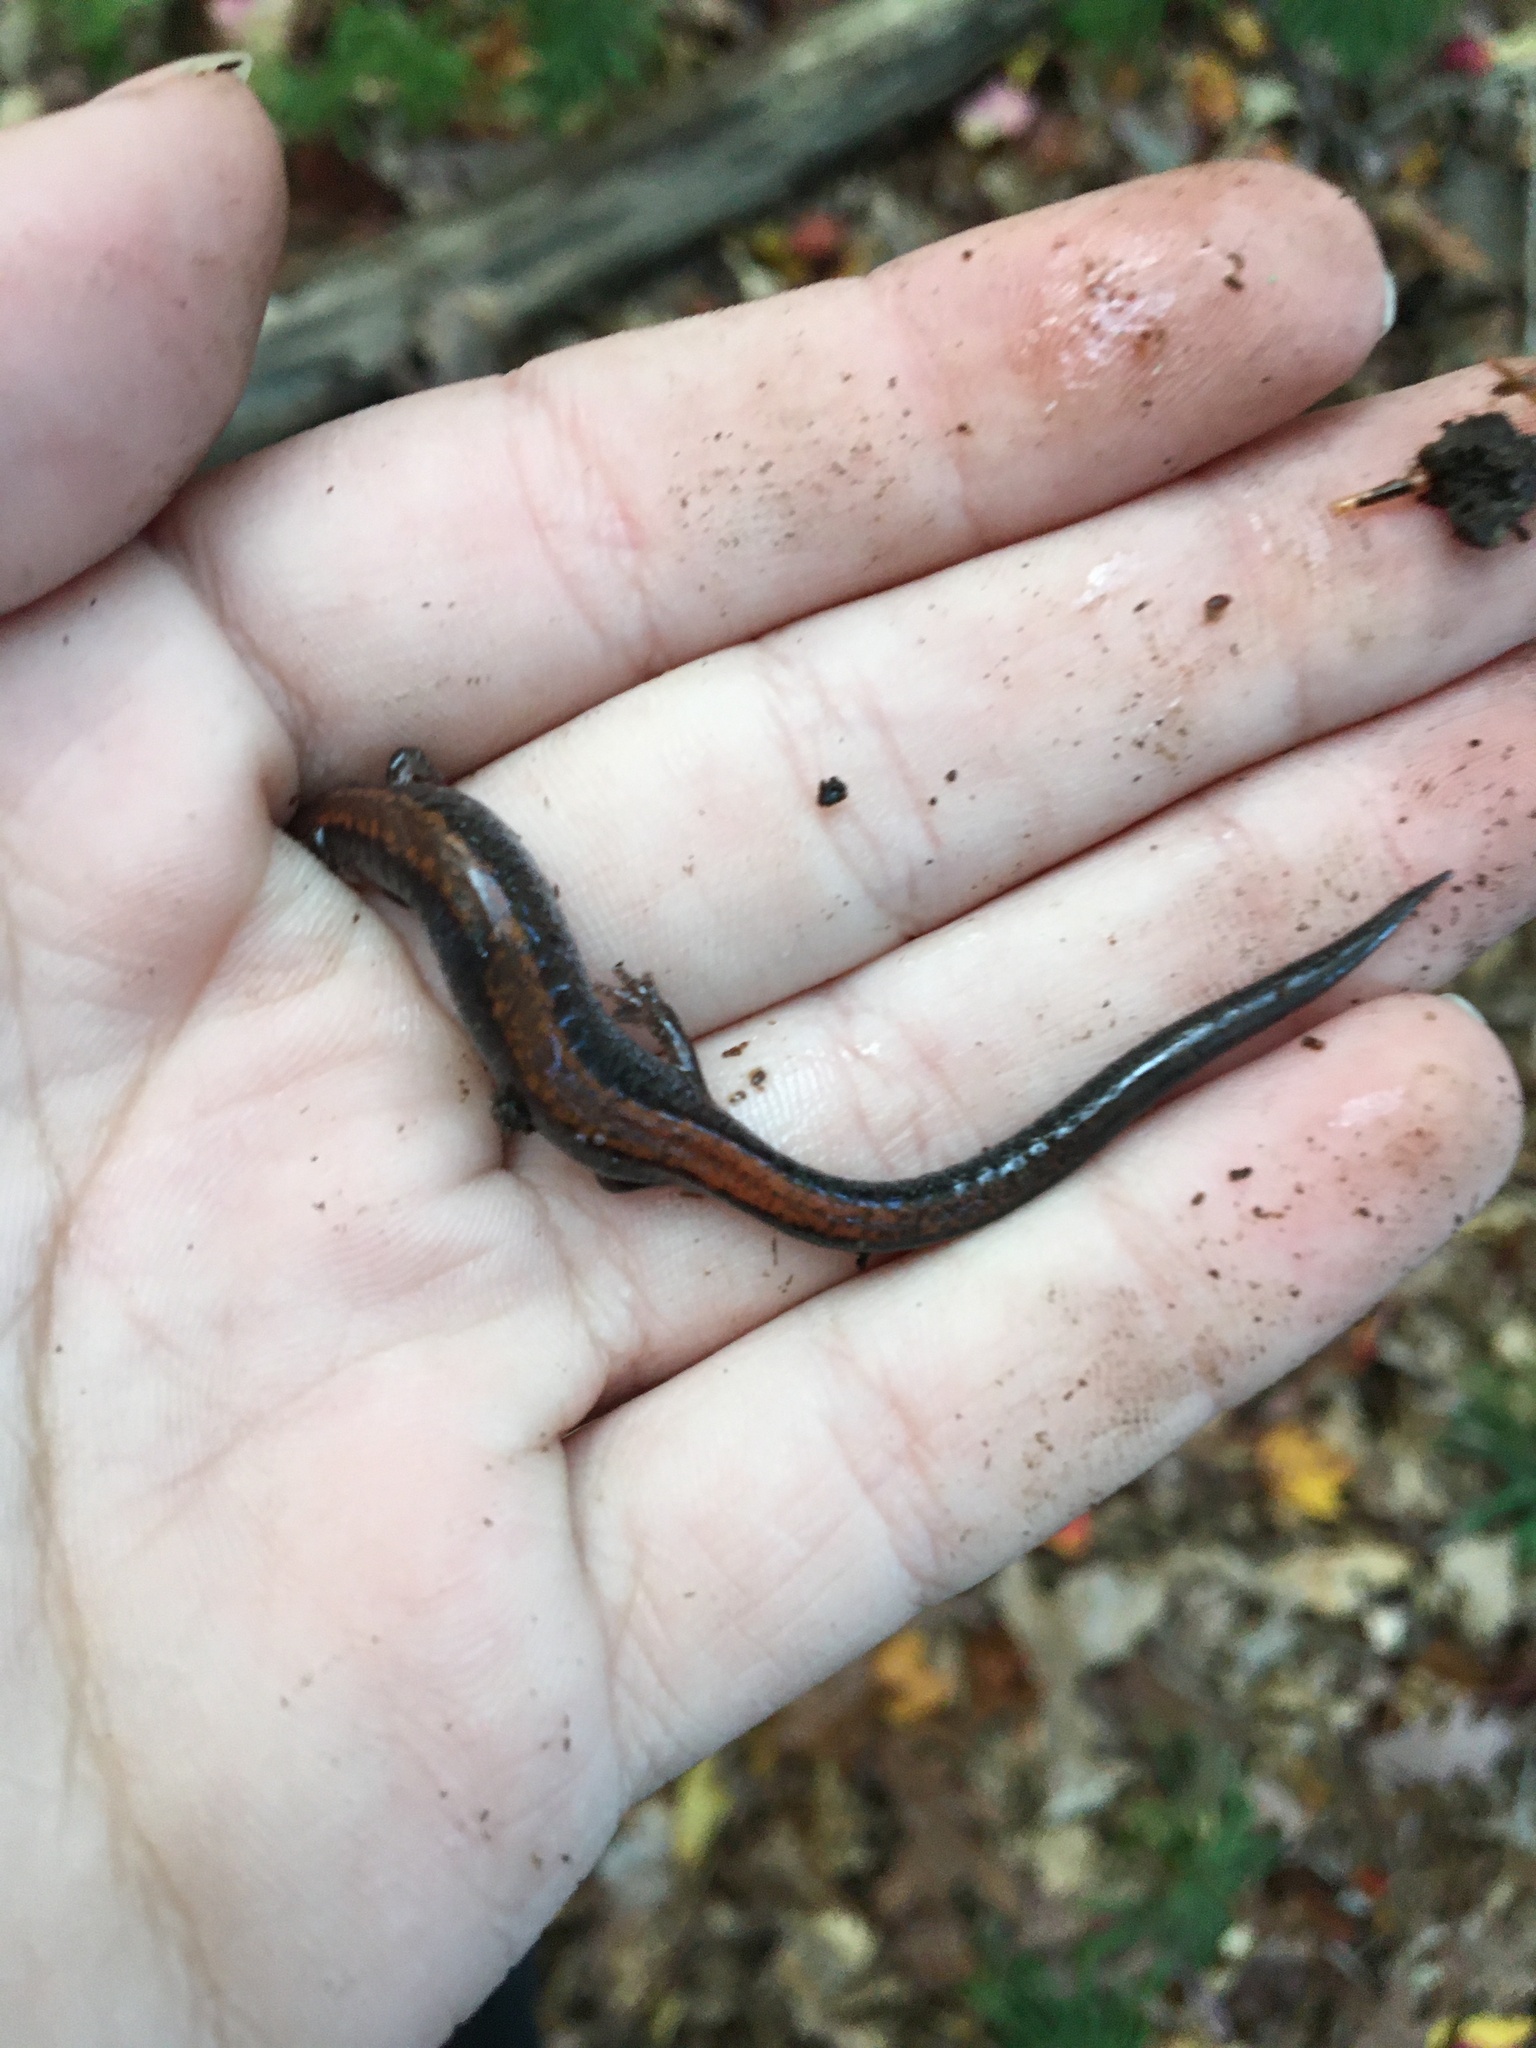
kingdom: Animalia
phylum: Chordata
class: Amphibia
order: Caudata
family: Plethodontidae
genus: Plethodon
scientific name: Plethodon cinereus
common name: Redback salamander
